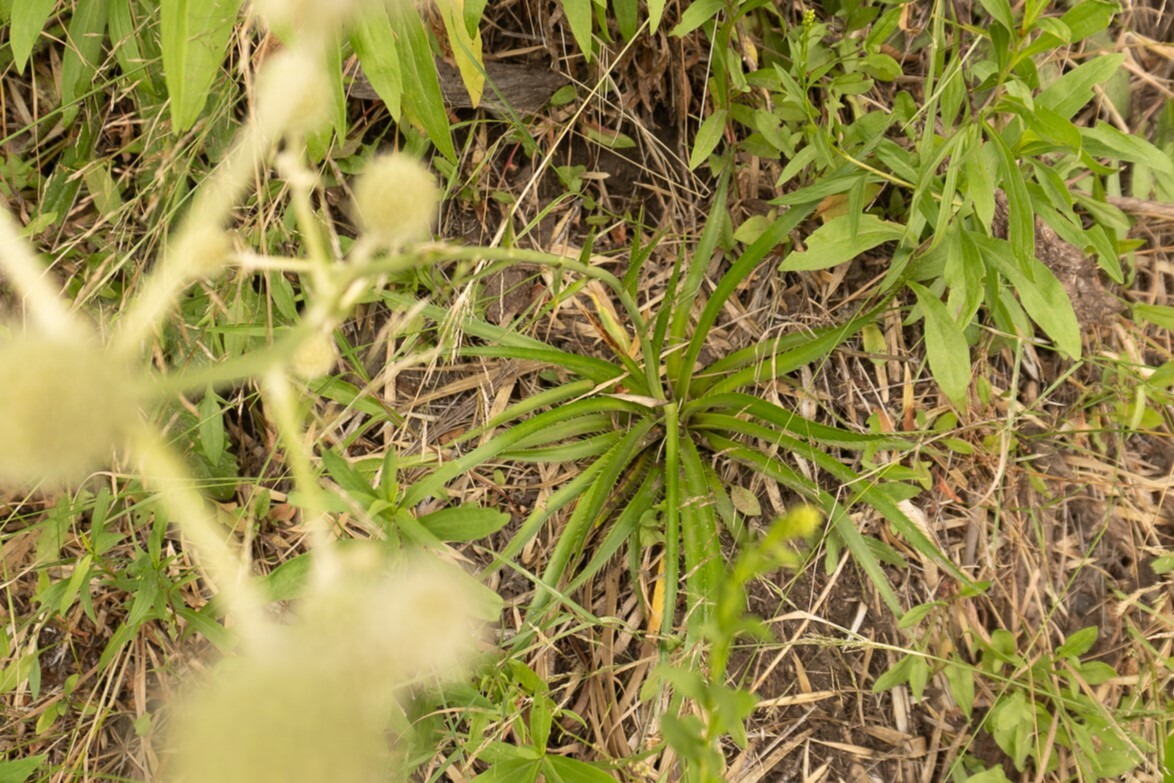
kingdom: Plantae
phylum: Tracheophyta
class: Magnoliopsida
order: Apiales
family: Apiaceae
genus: Eryngium
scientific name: Eryngium humboldtii
